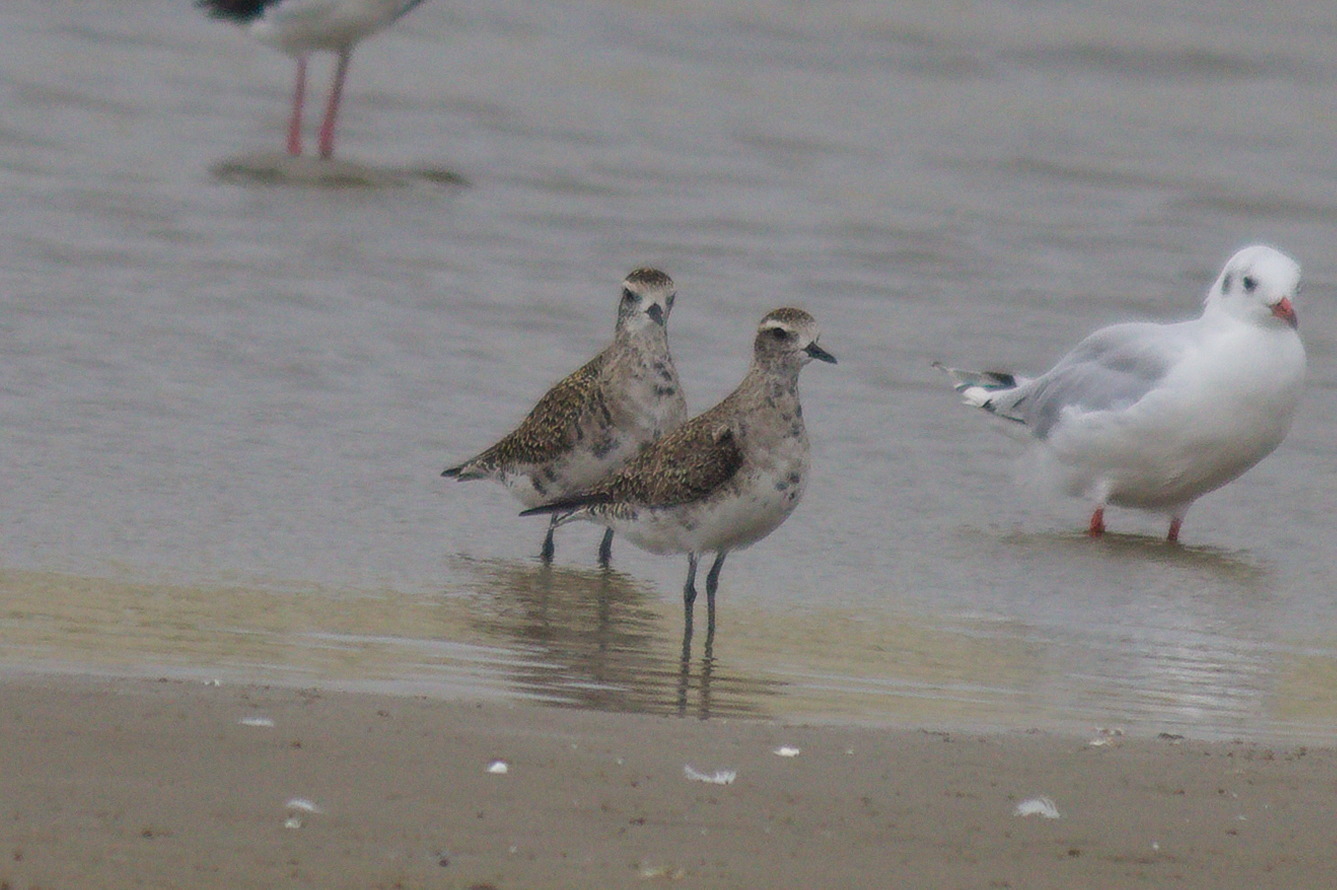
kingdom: Animalia
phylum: Chordata
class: Aves
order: Charadriiformes
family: Charadriidae
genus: Pluvialis
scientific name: Pluvialis dominica
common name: American golden plover
